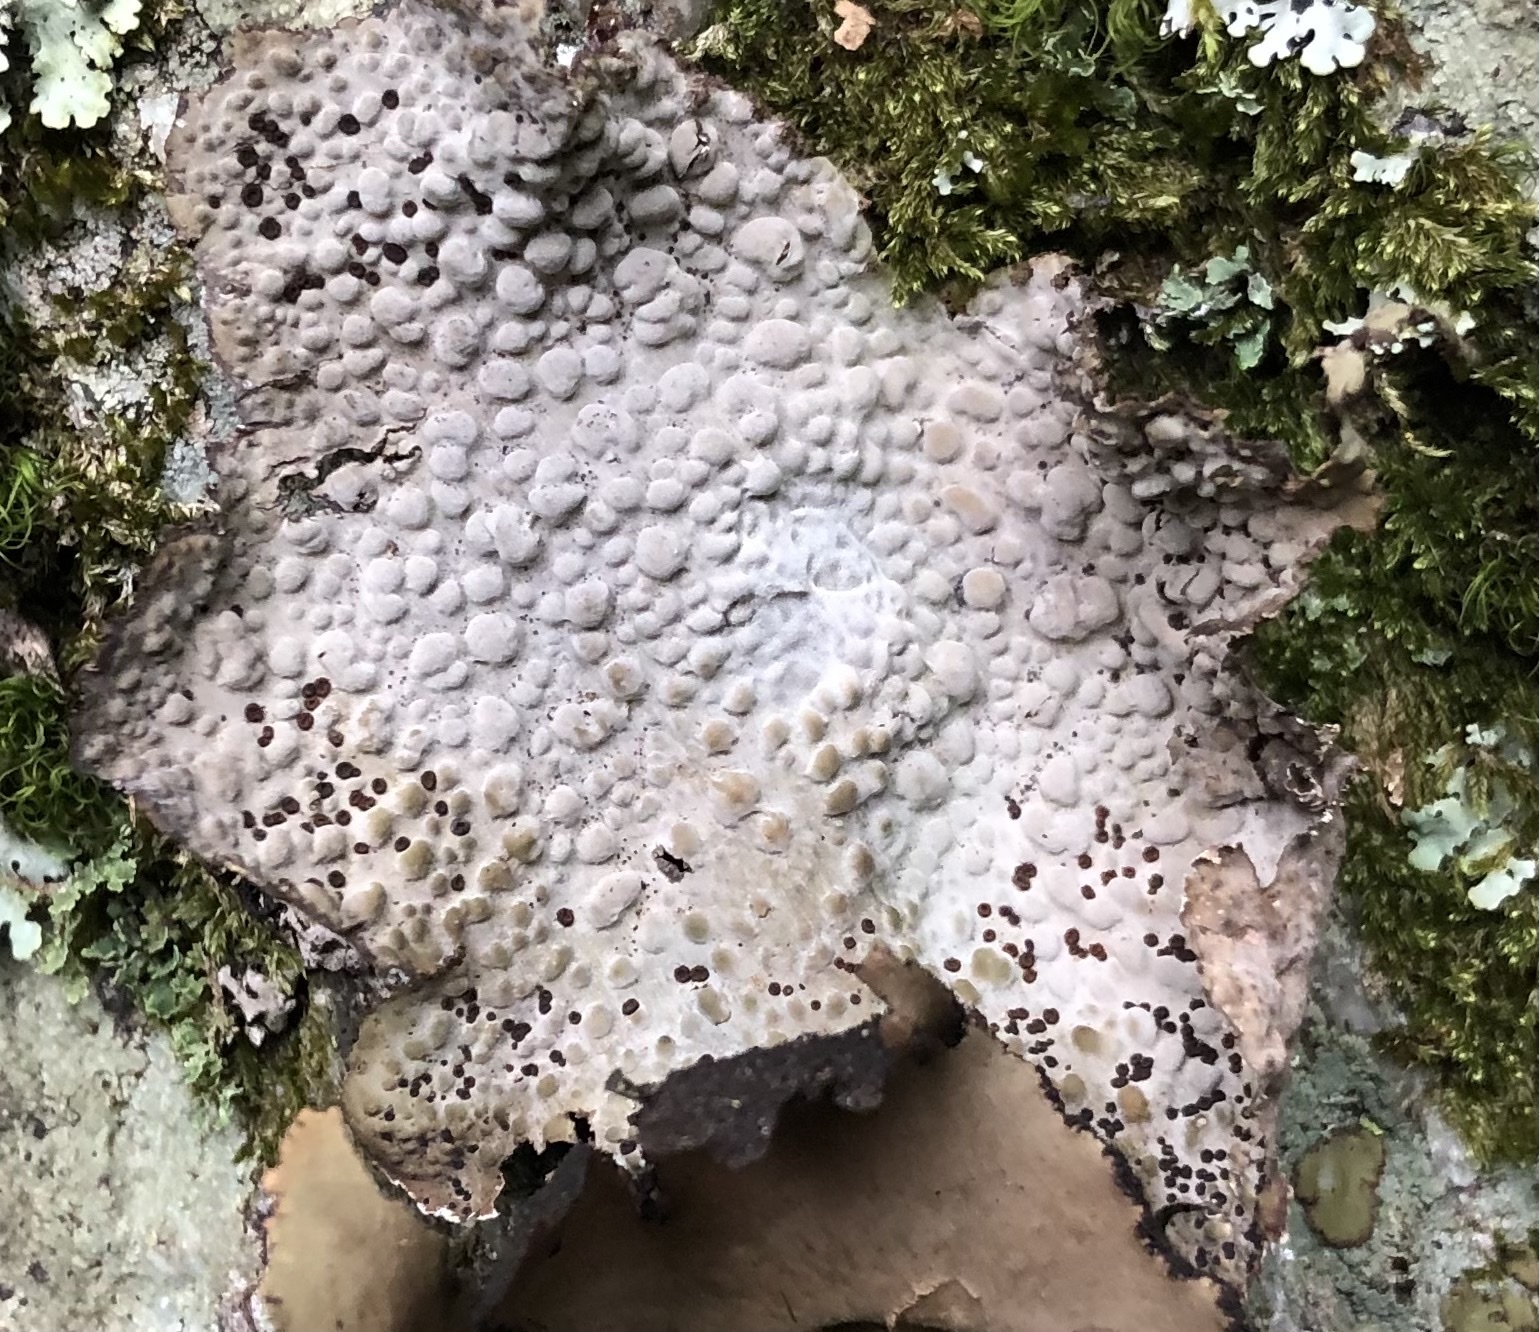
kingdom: Fungi
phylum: Ascomycota
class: Lecanoromycetes
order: Umbilicariales
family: Umbilicariaceae
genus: Lasallia
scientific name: Lasallia papulosa
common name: Common toadskin lichen
